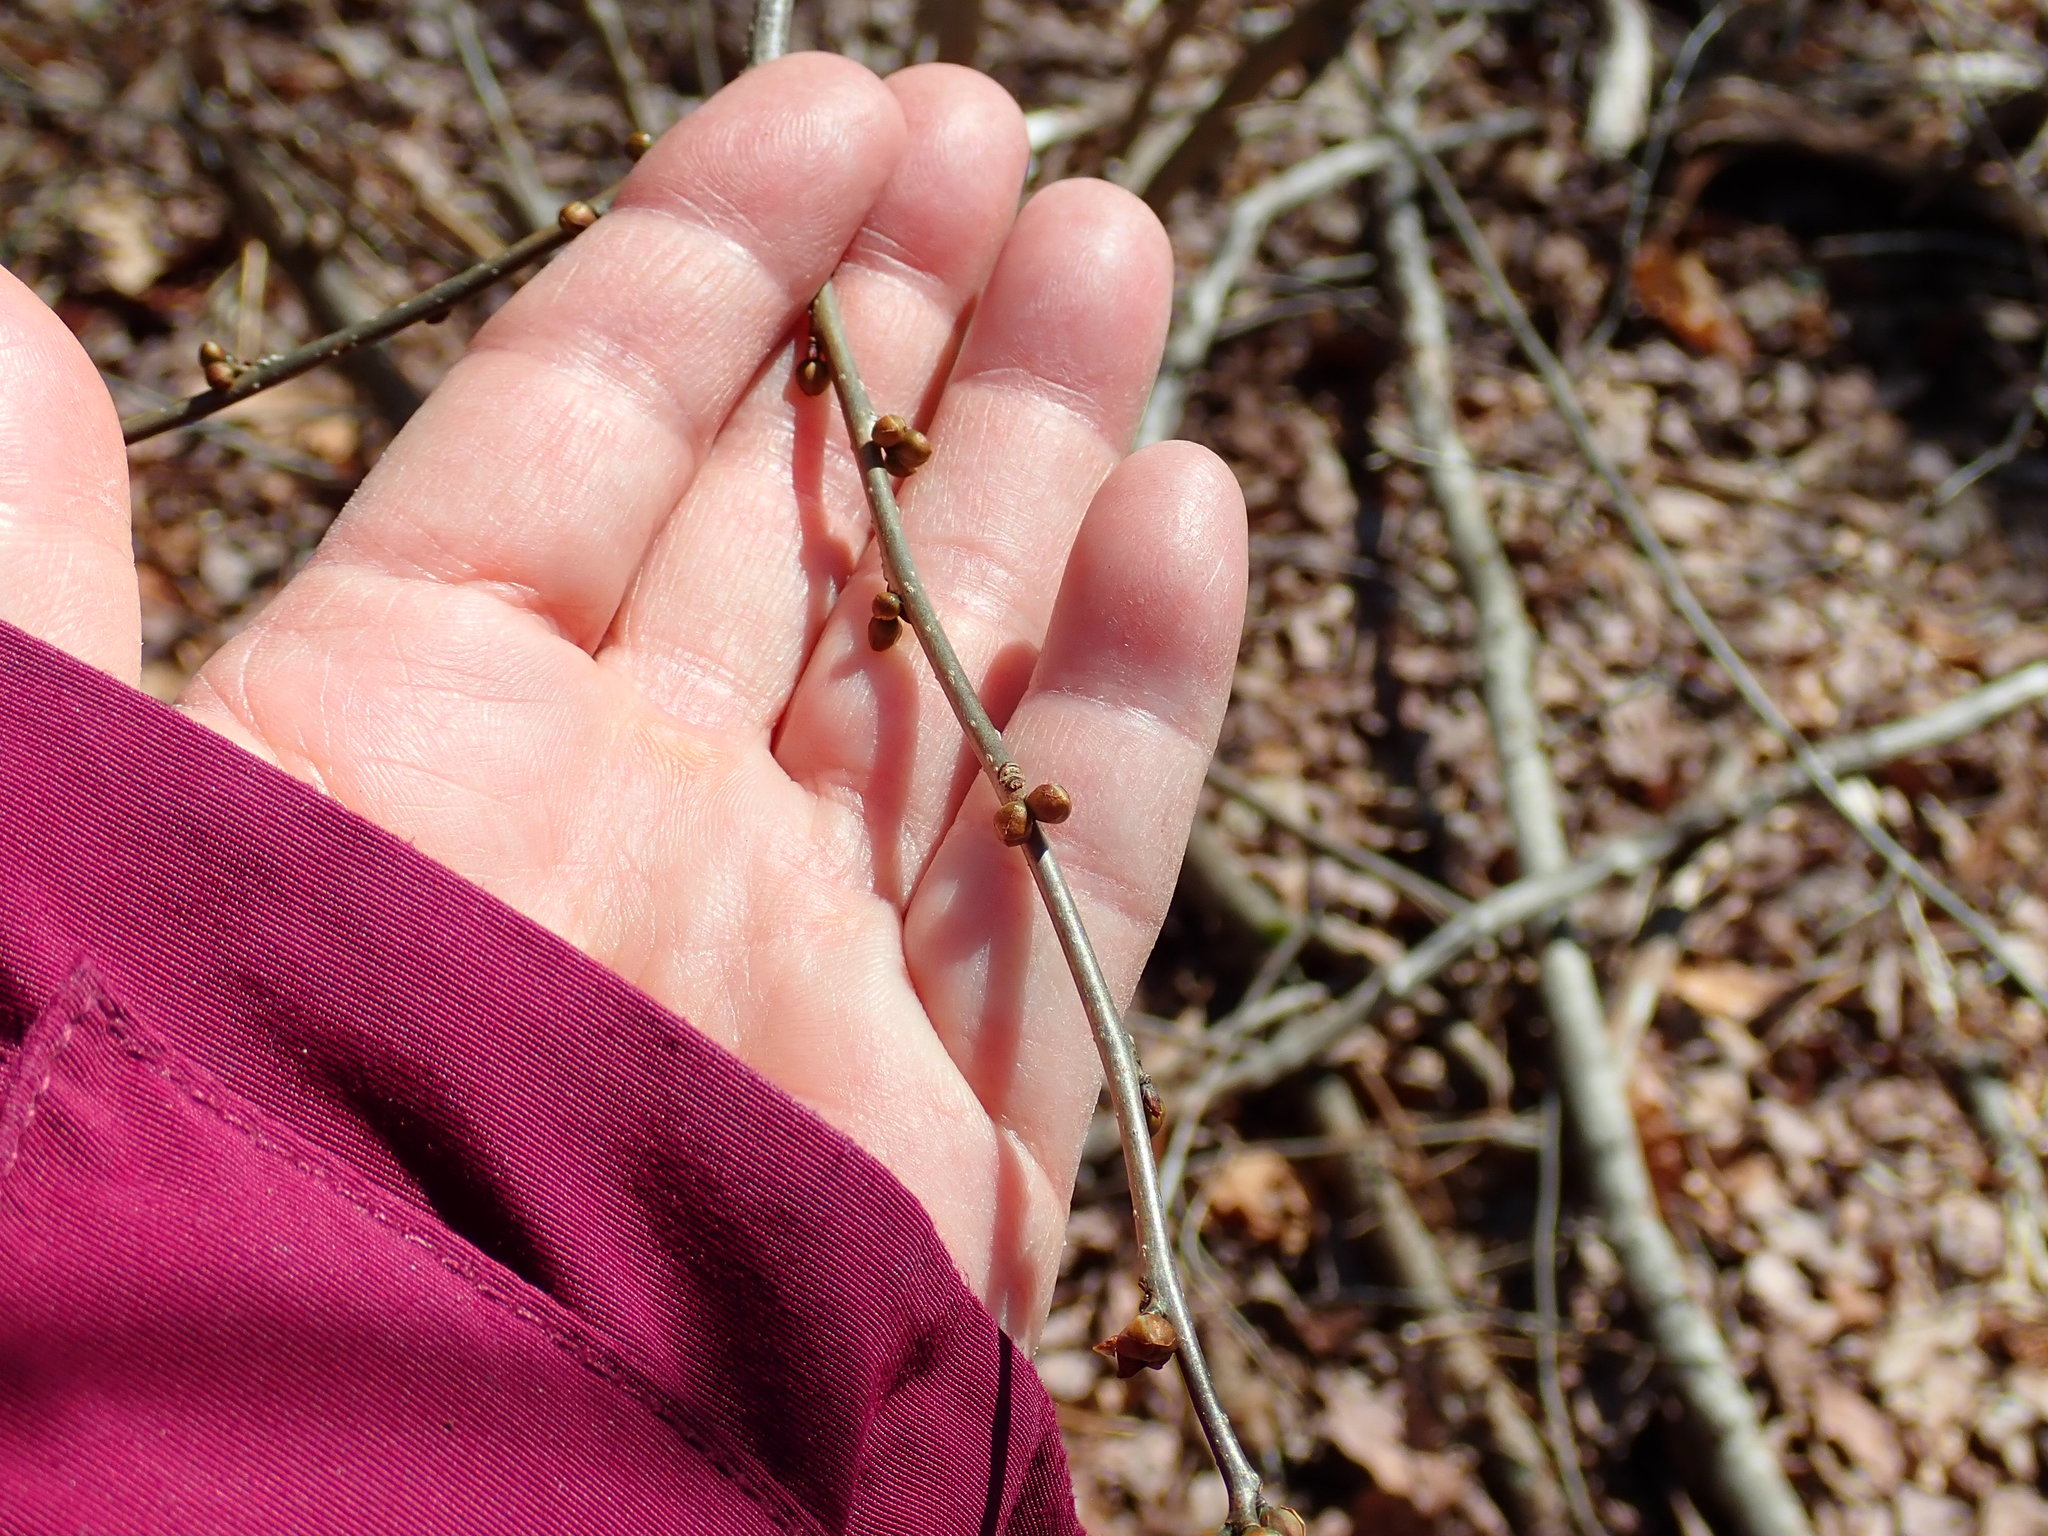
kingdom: Plantae
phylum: Tracheophyta
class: Magnoliopsida
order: Laurales
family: Lauraceae
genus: Lindera
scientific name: Lindera benzoin
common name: Spicebush
